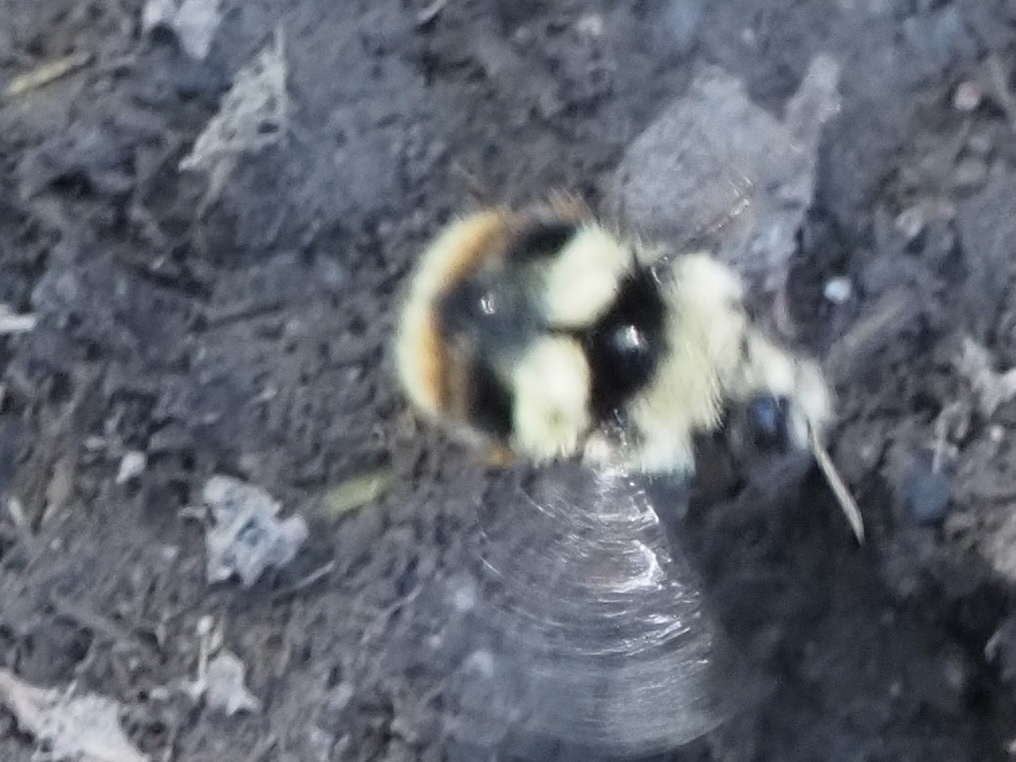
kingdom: Animalia
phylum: Arthropoda
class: Insecta
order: Hymenoptera
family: Apidae
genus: Bombus
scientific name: Bombus vancouverensis
